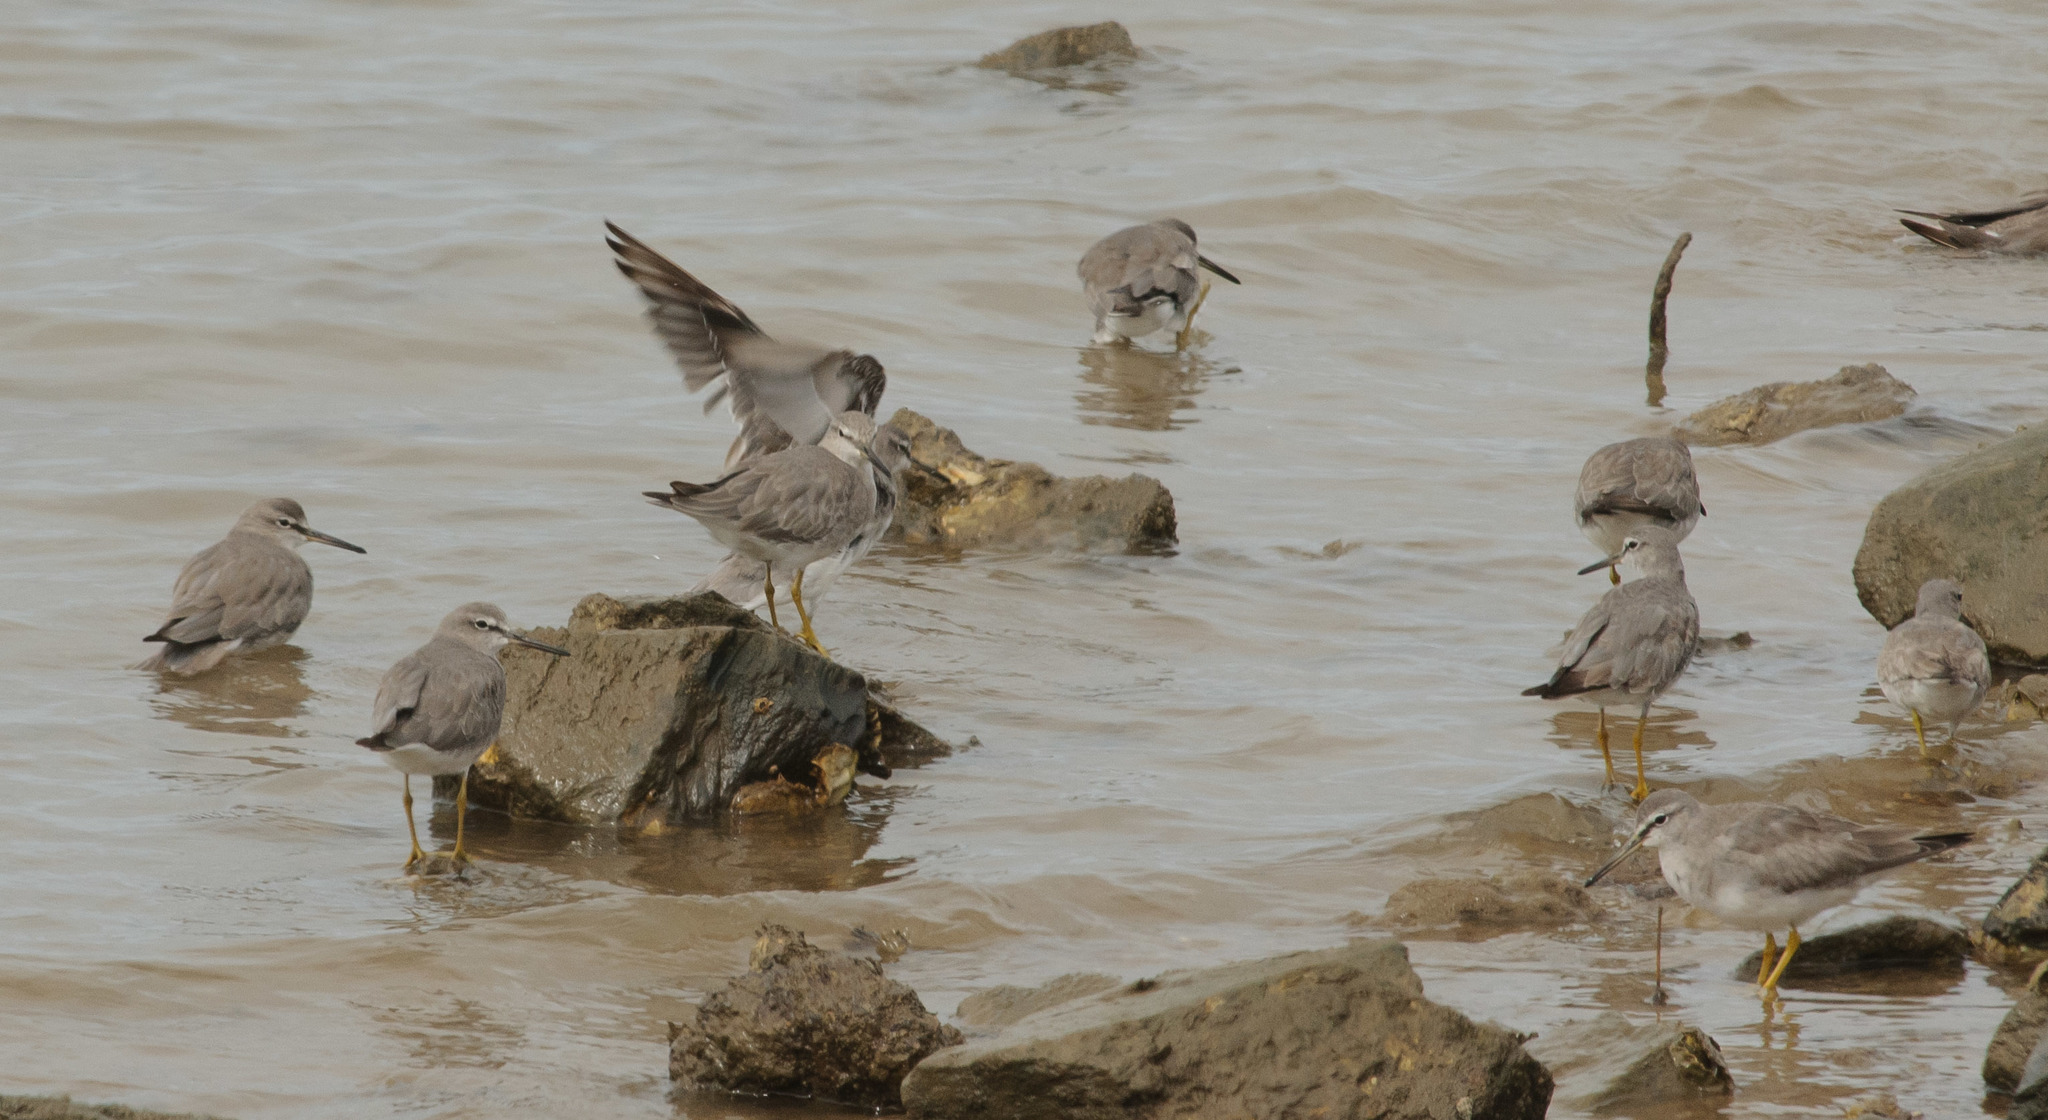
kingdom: Animalia
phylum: Chordata
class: Aves
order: Charadriiformes
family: Scolopacidae
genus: Tringa
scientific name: Tringa brevipes
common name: Grey-tailed tattler
